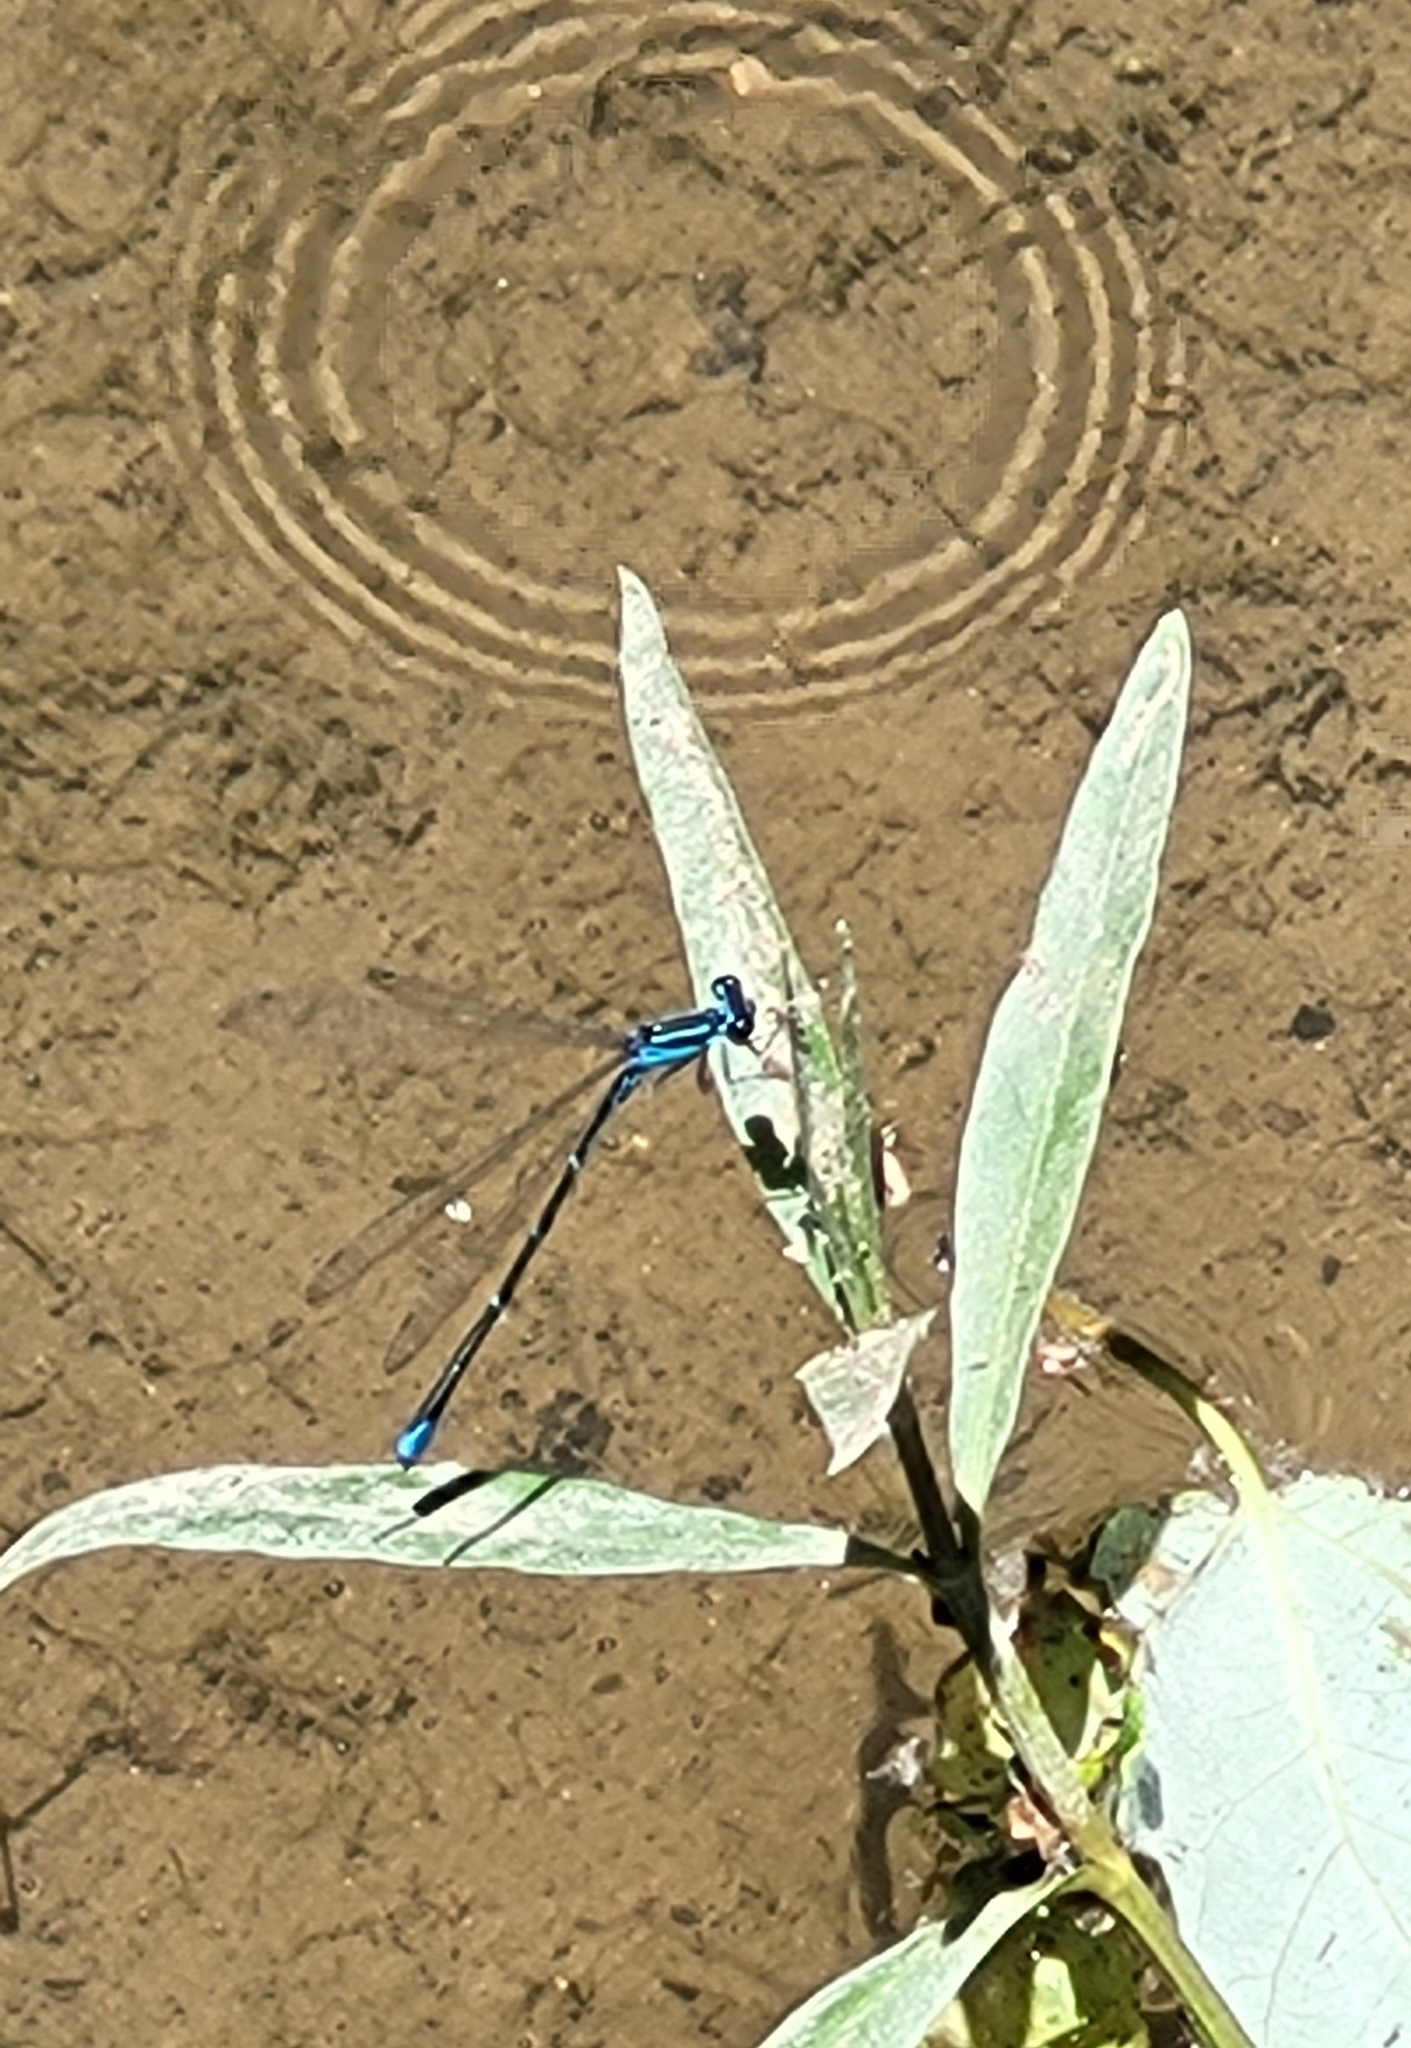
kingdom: Animalia
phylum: Arthropoda
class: Insecta
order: Odonata
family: Coenagrionidae
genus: Enallagma
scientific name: Enallagma exsulans
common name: Stream bluet
